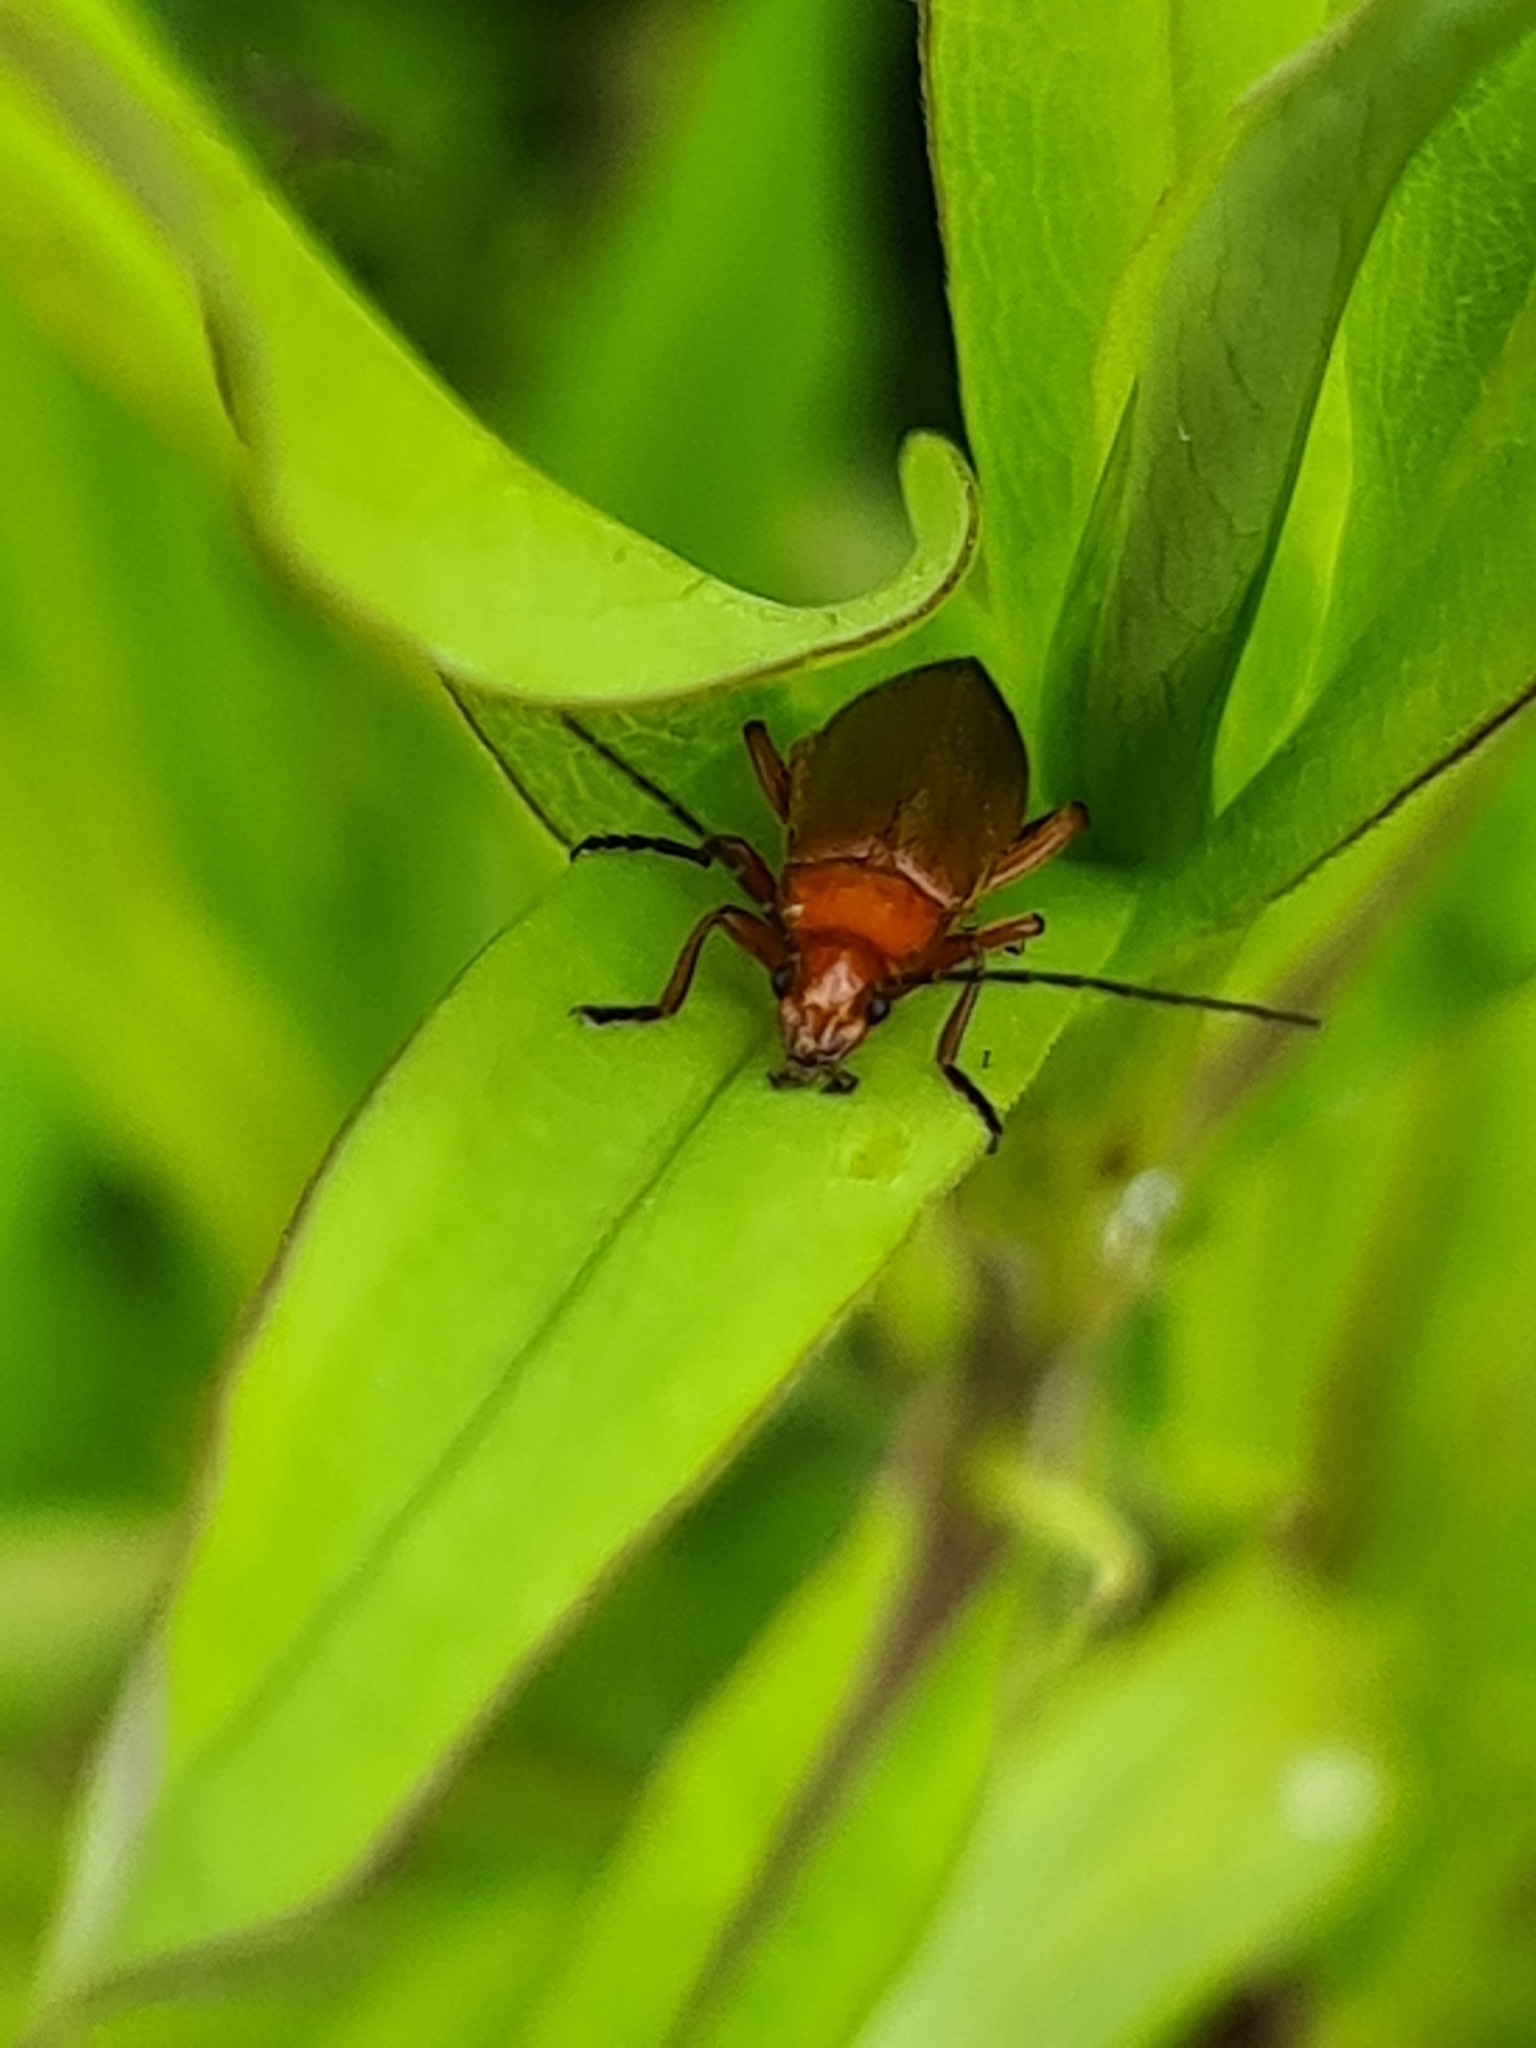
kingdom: Animalia
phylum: Arthropoda
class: Insecta
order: Coleoptera
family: Cantharidae
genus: Rhagonycha
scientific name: Rhagonycha fulva
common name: Common red soldier beetle
